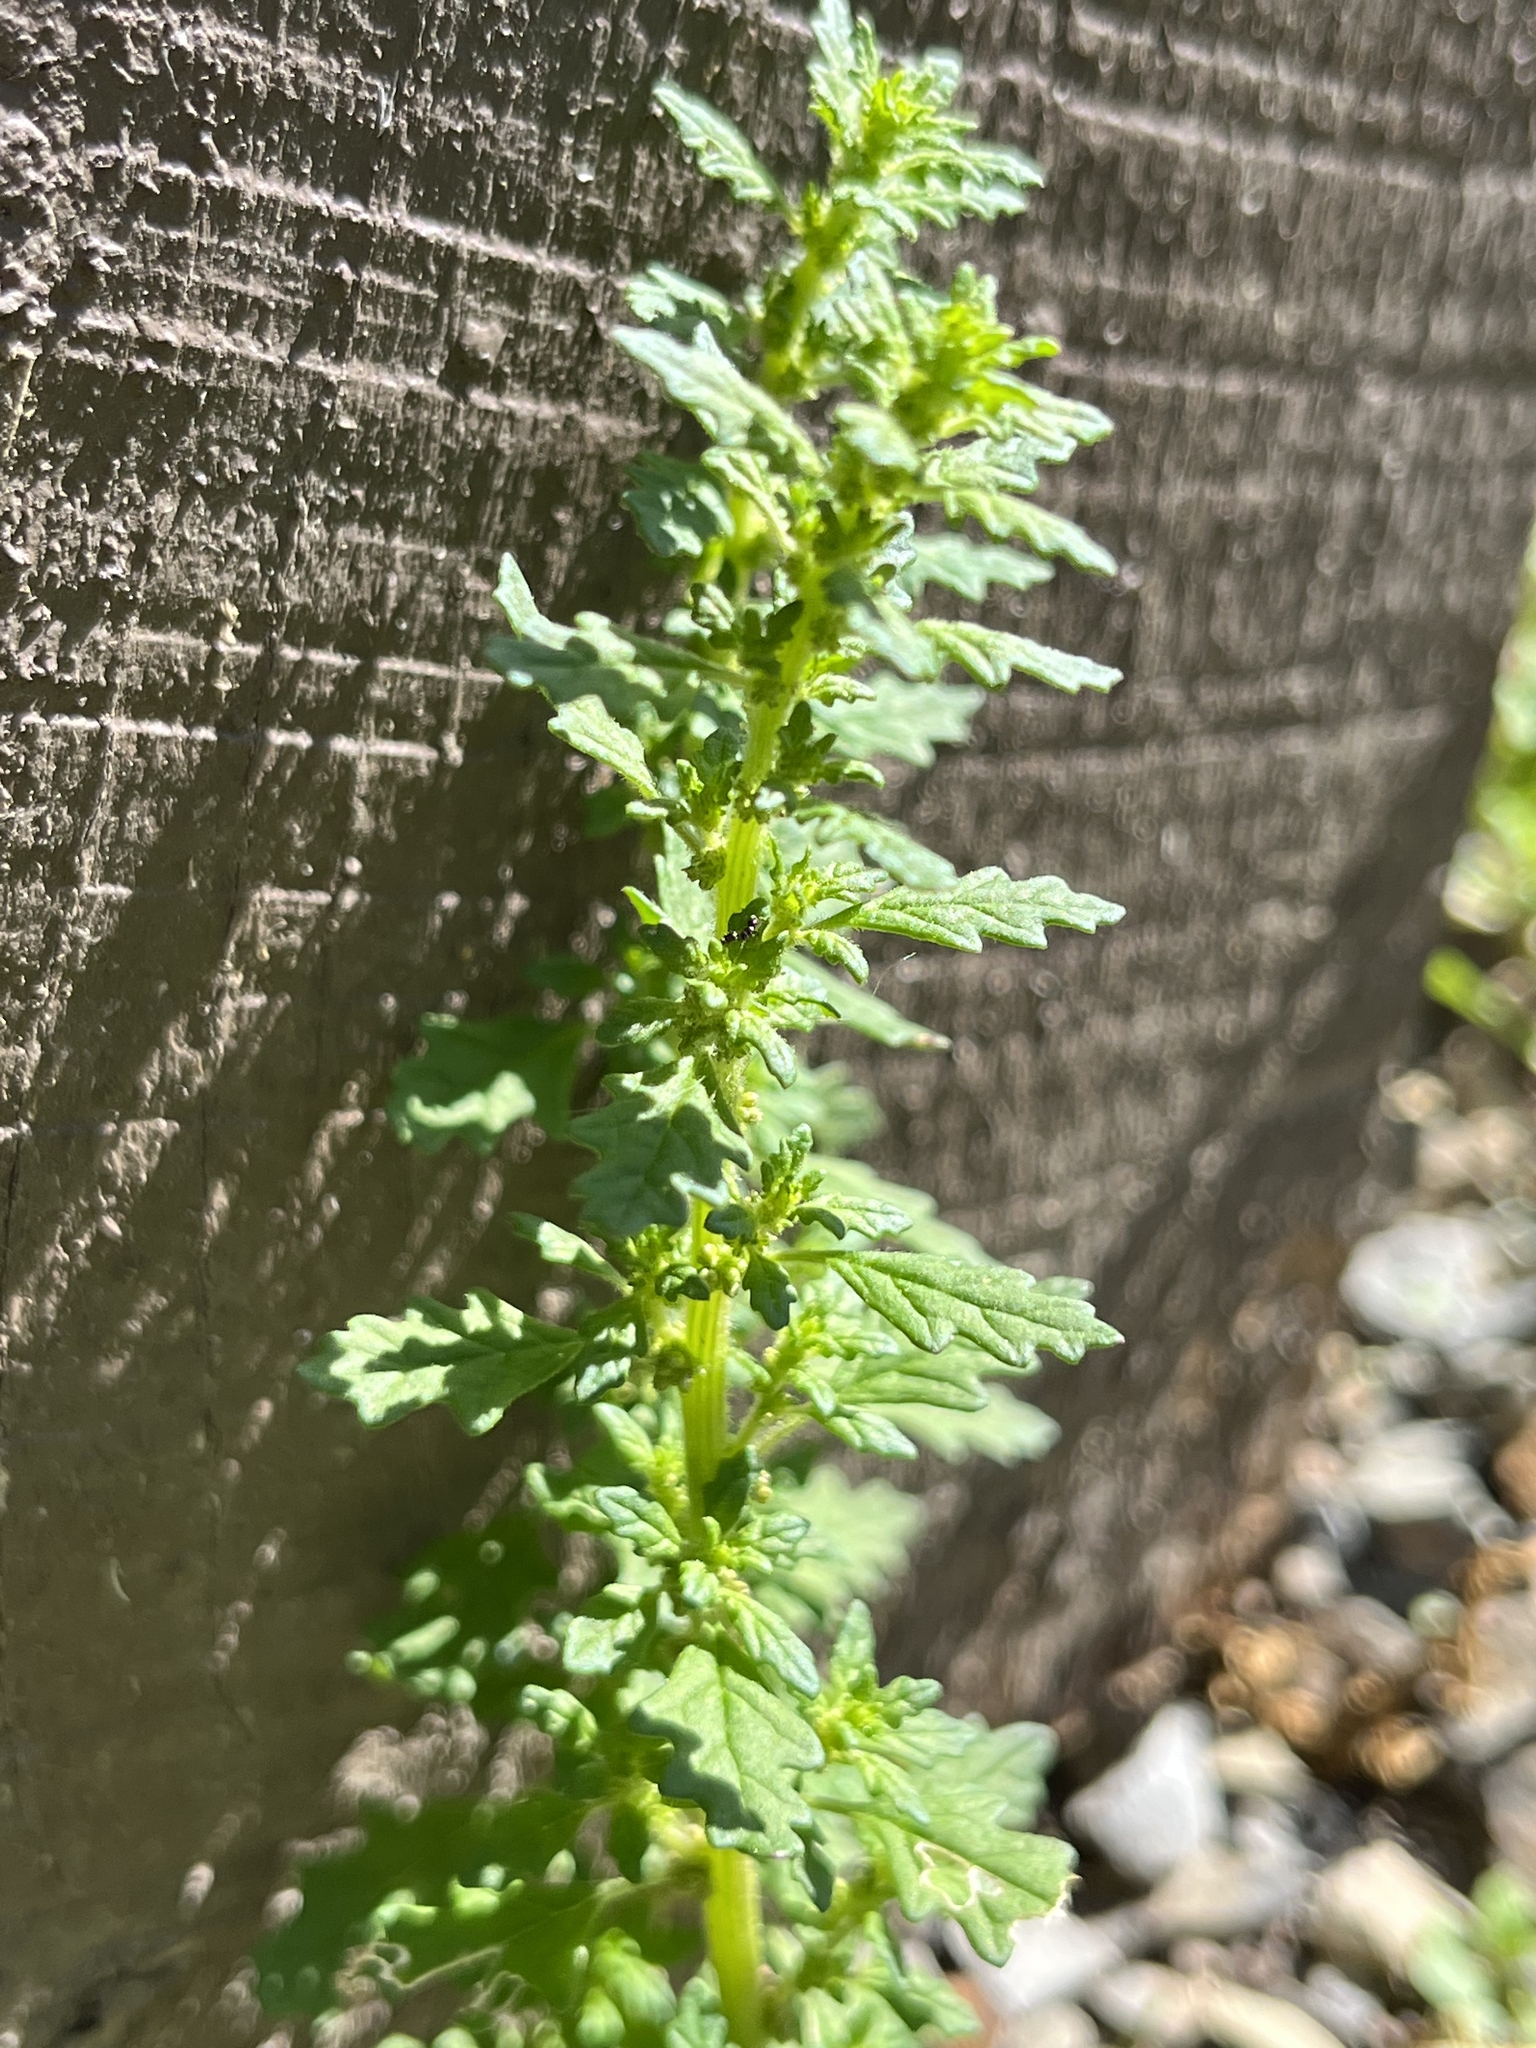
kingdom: Plantae
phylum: Tracheophyta
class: Magnoliopsida
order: Caryophyllales
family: Amaranthaceae
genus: Dysphania
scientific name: Dysphania pumilio
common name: Clammy goosefoot
